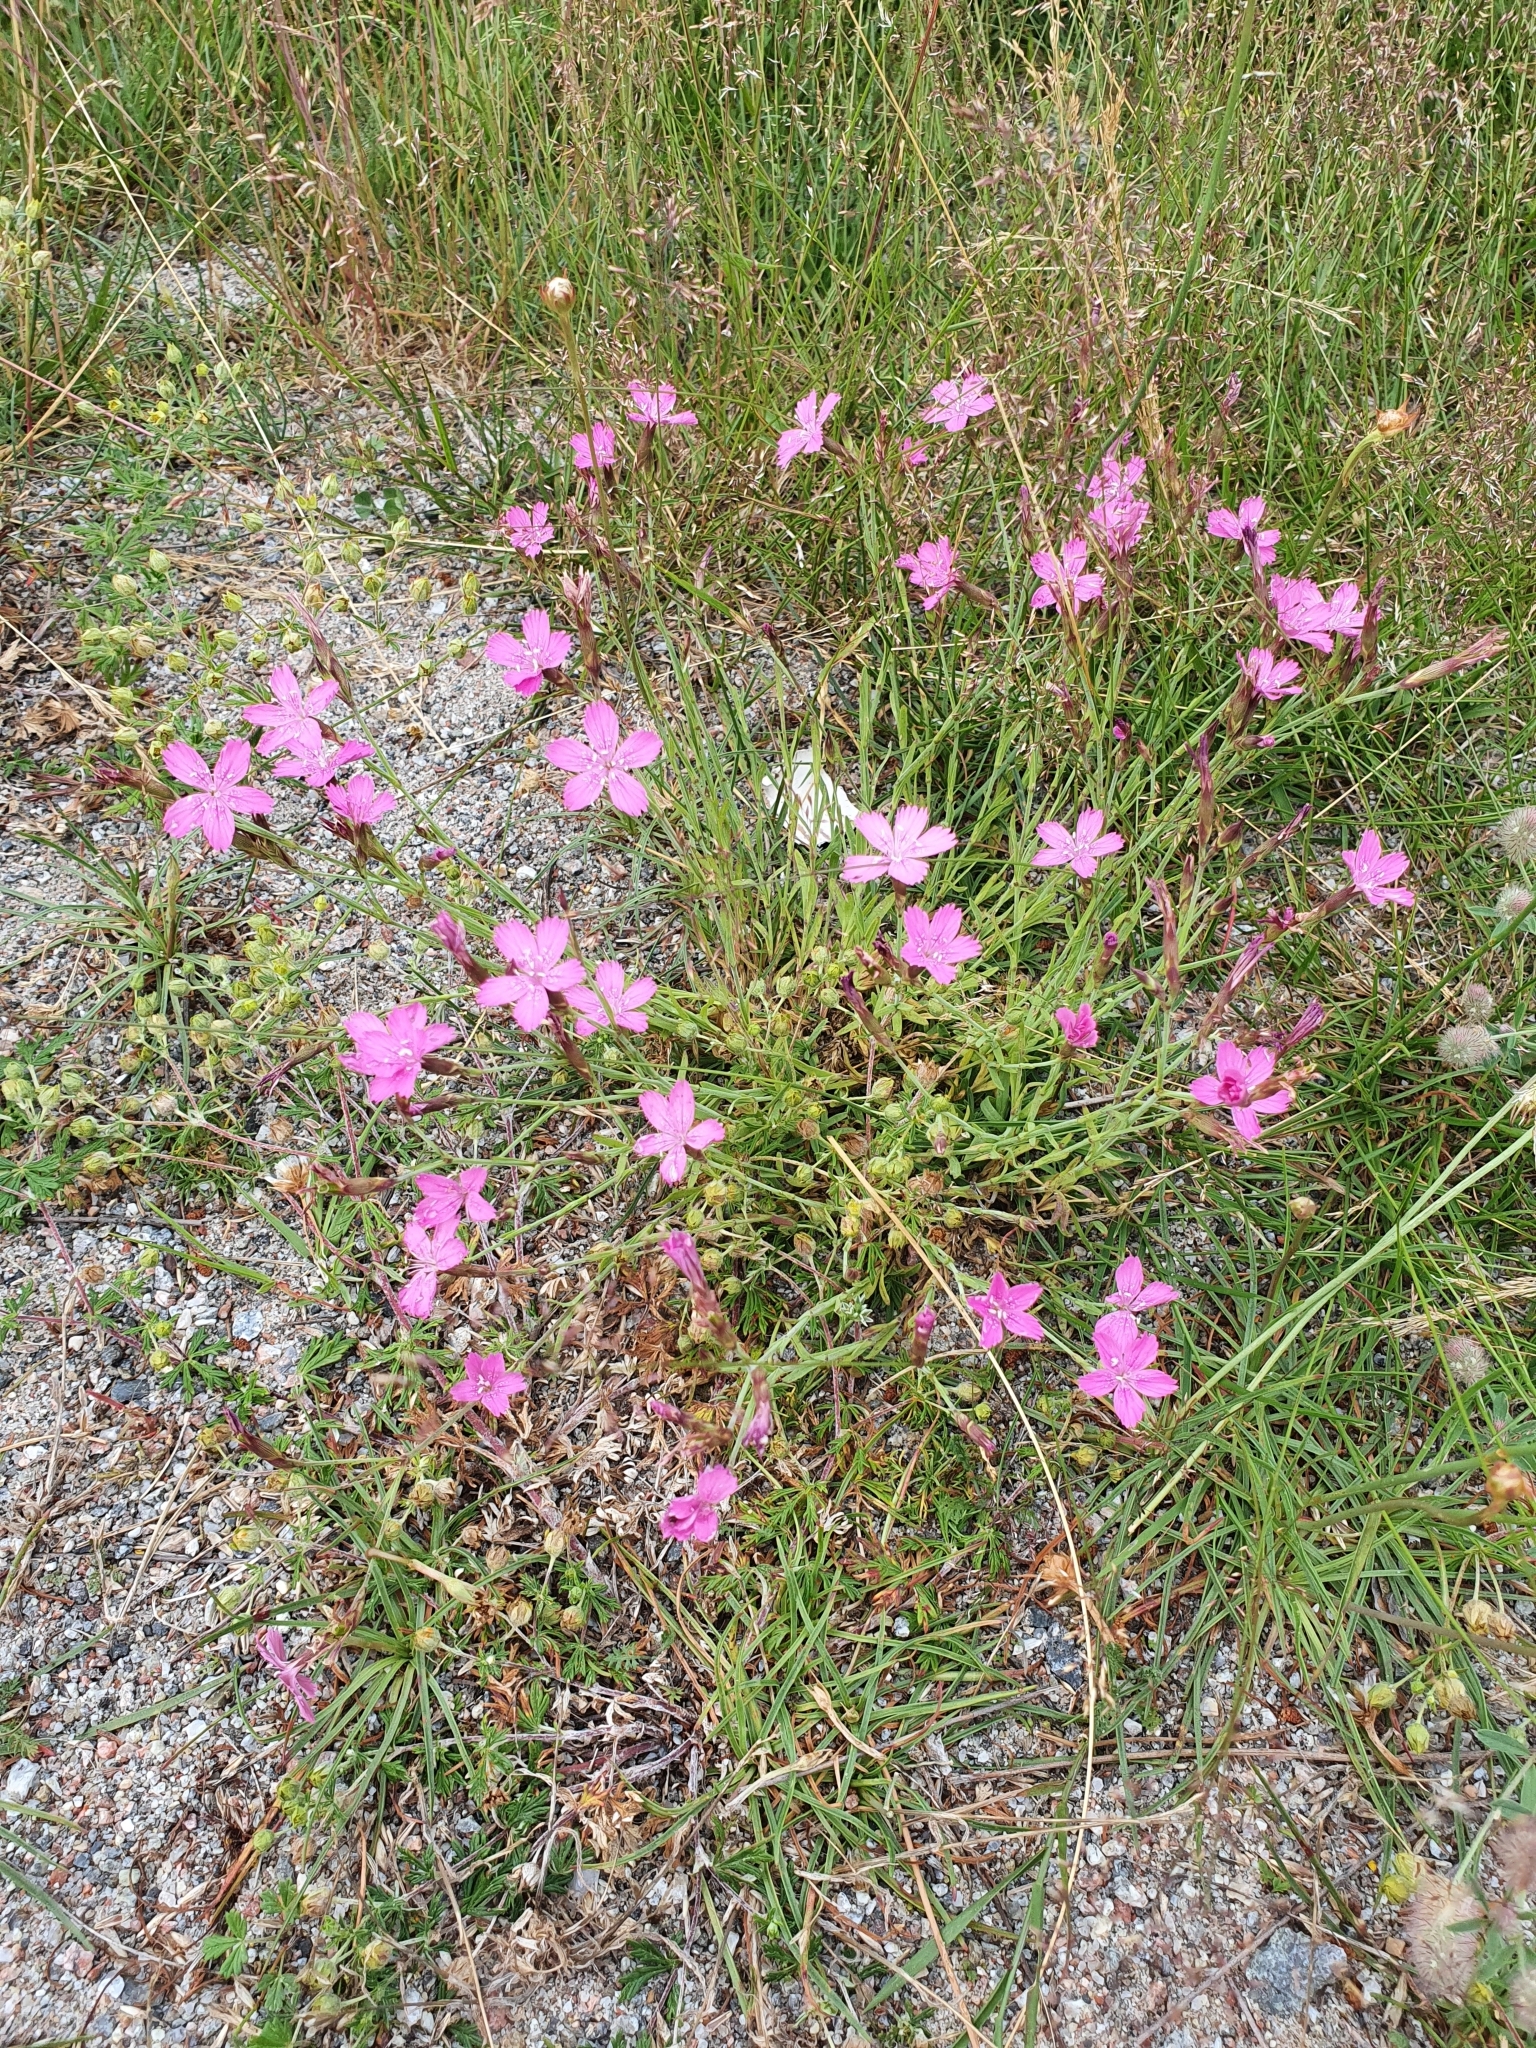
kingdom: Plantae
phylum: Tracheophyta
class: Magnoliopsida
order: Caryophyllales
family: Caryophyllaceae
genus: Dianthus
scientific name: Dianthus deltoides
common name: Maiden pink
